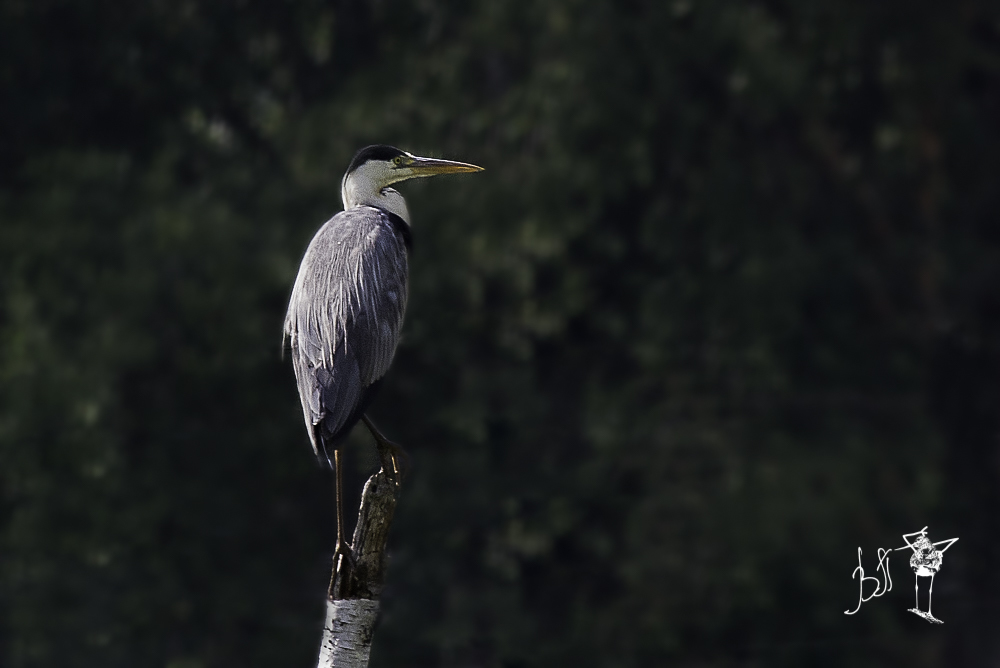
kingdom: Animalia
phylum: Chordata
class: Aves
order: Pelecaniformes
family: Ardeidae
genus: Ardea
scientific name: Ardea cinerea
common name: Grey heron
